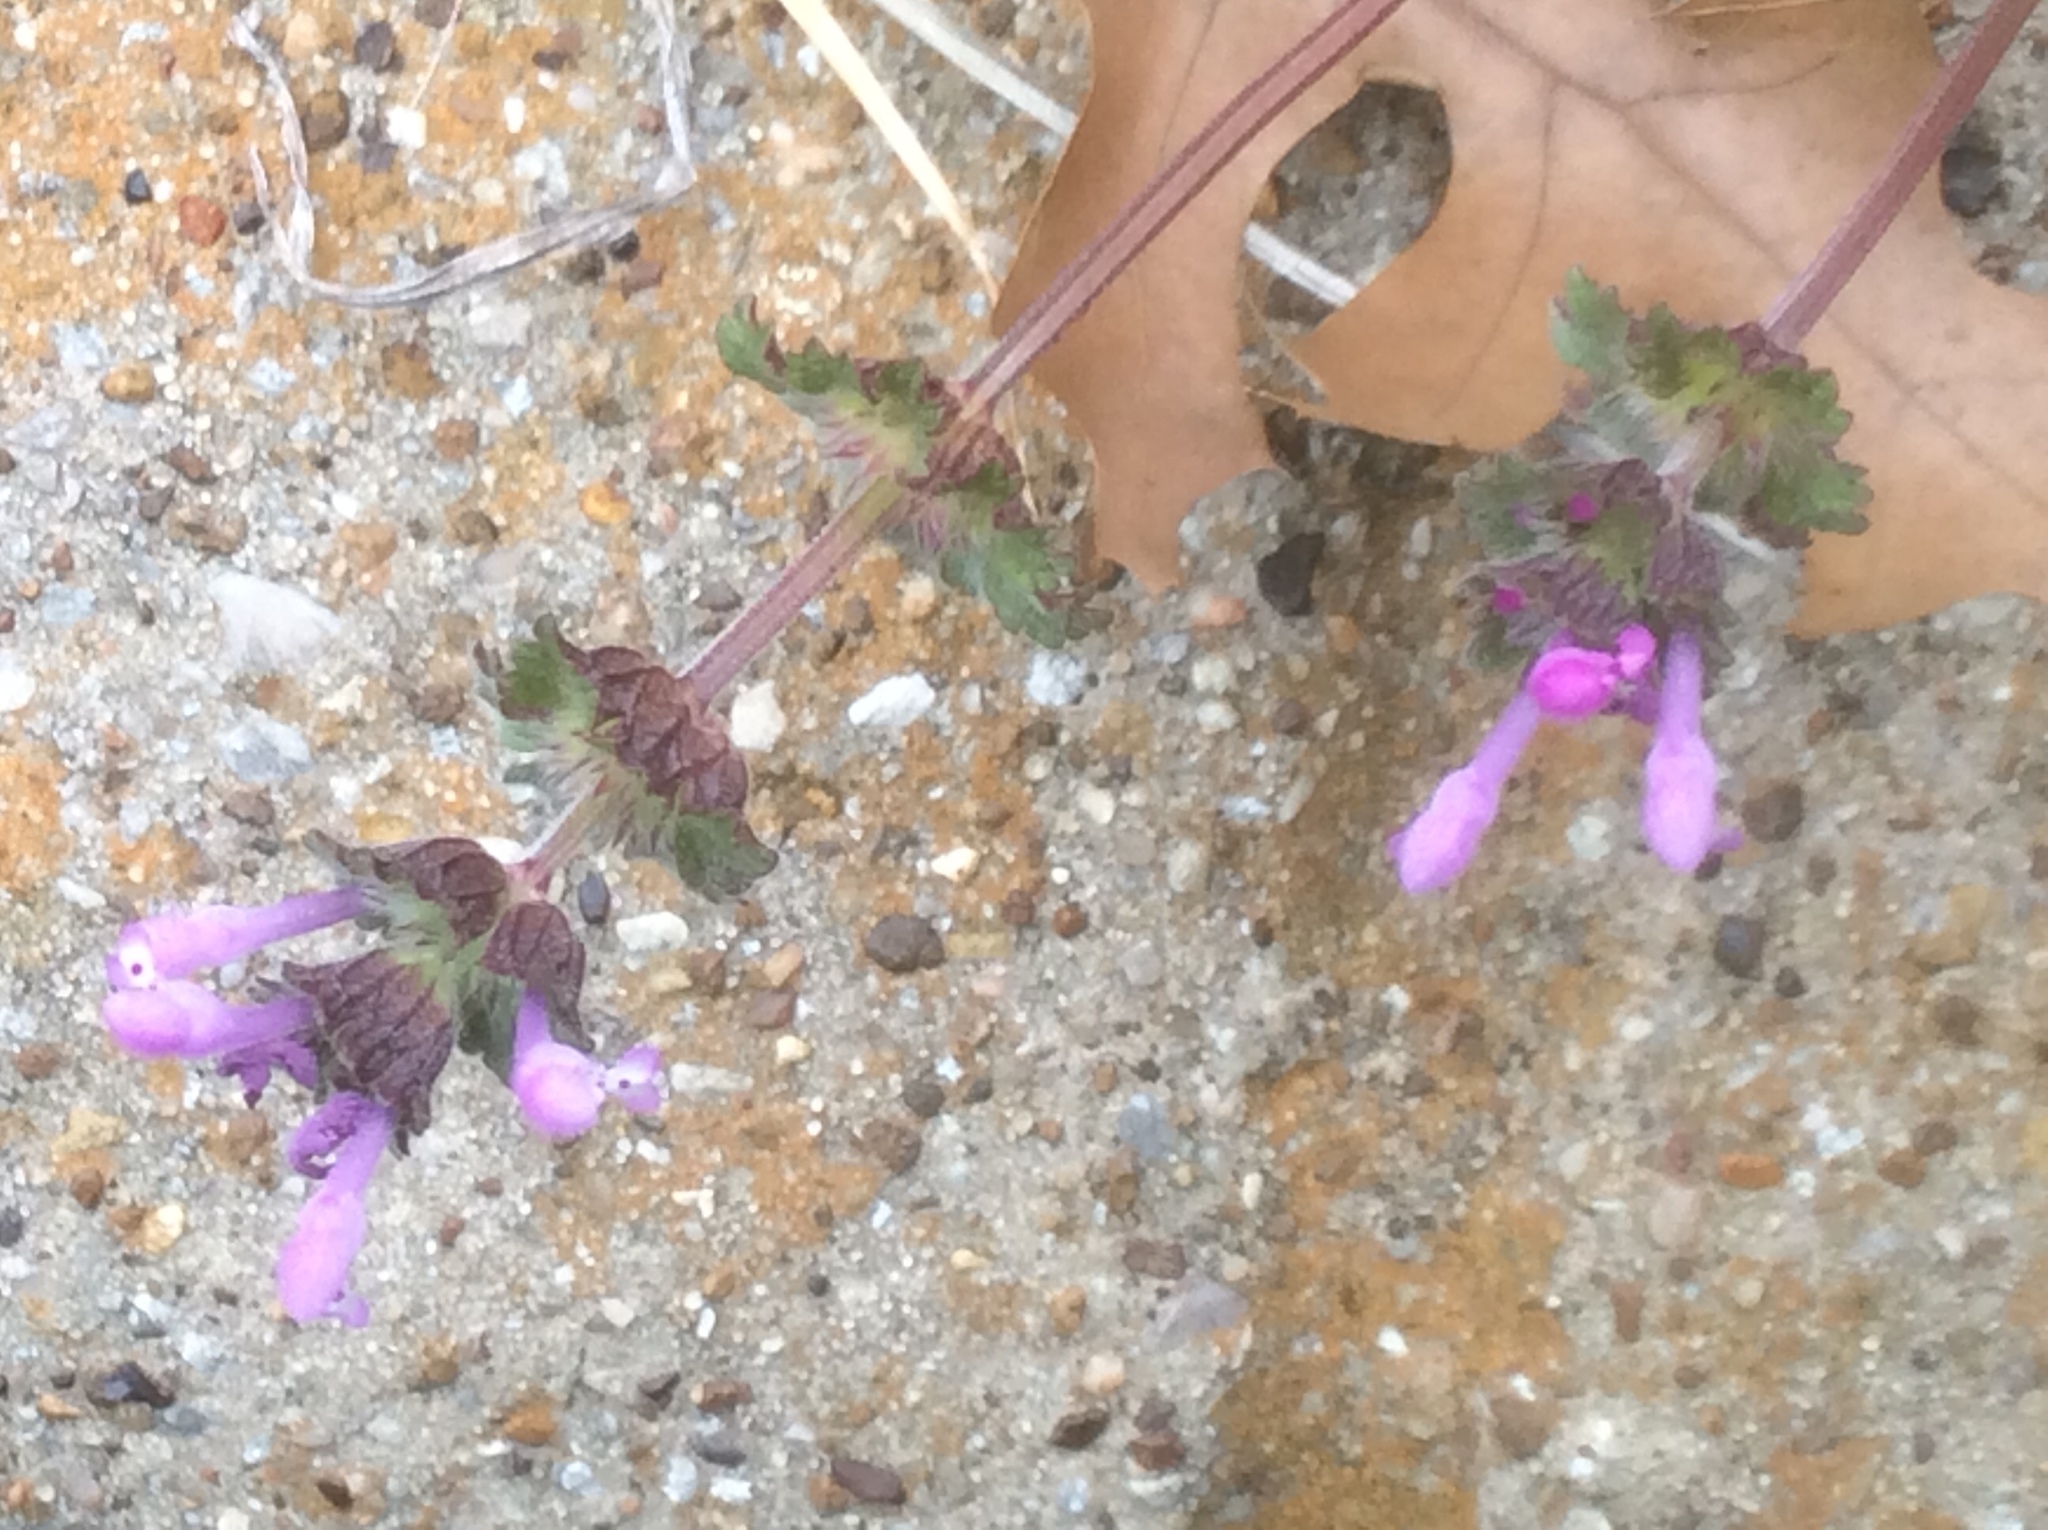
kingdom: Plantae
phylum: Tracheophyta
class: Magnoliopsida
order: Lamiales
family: Lamiaceae
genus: Lamium
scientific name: Lamium amplexicaule
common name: Henbit dead-nettle
